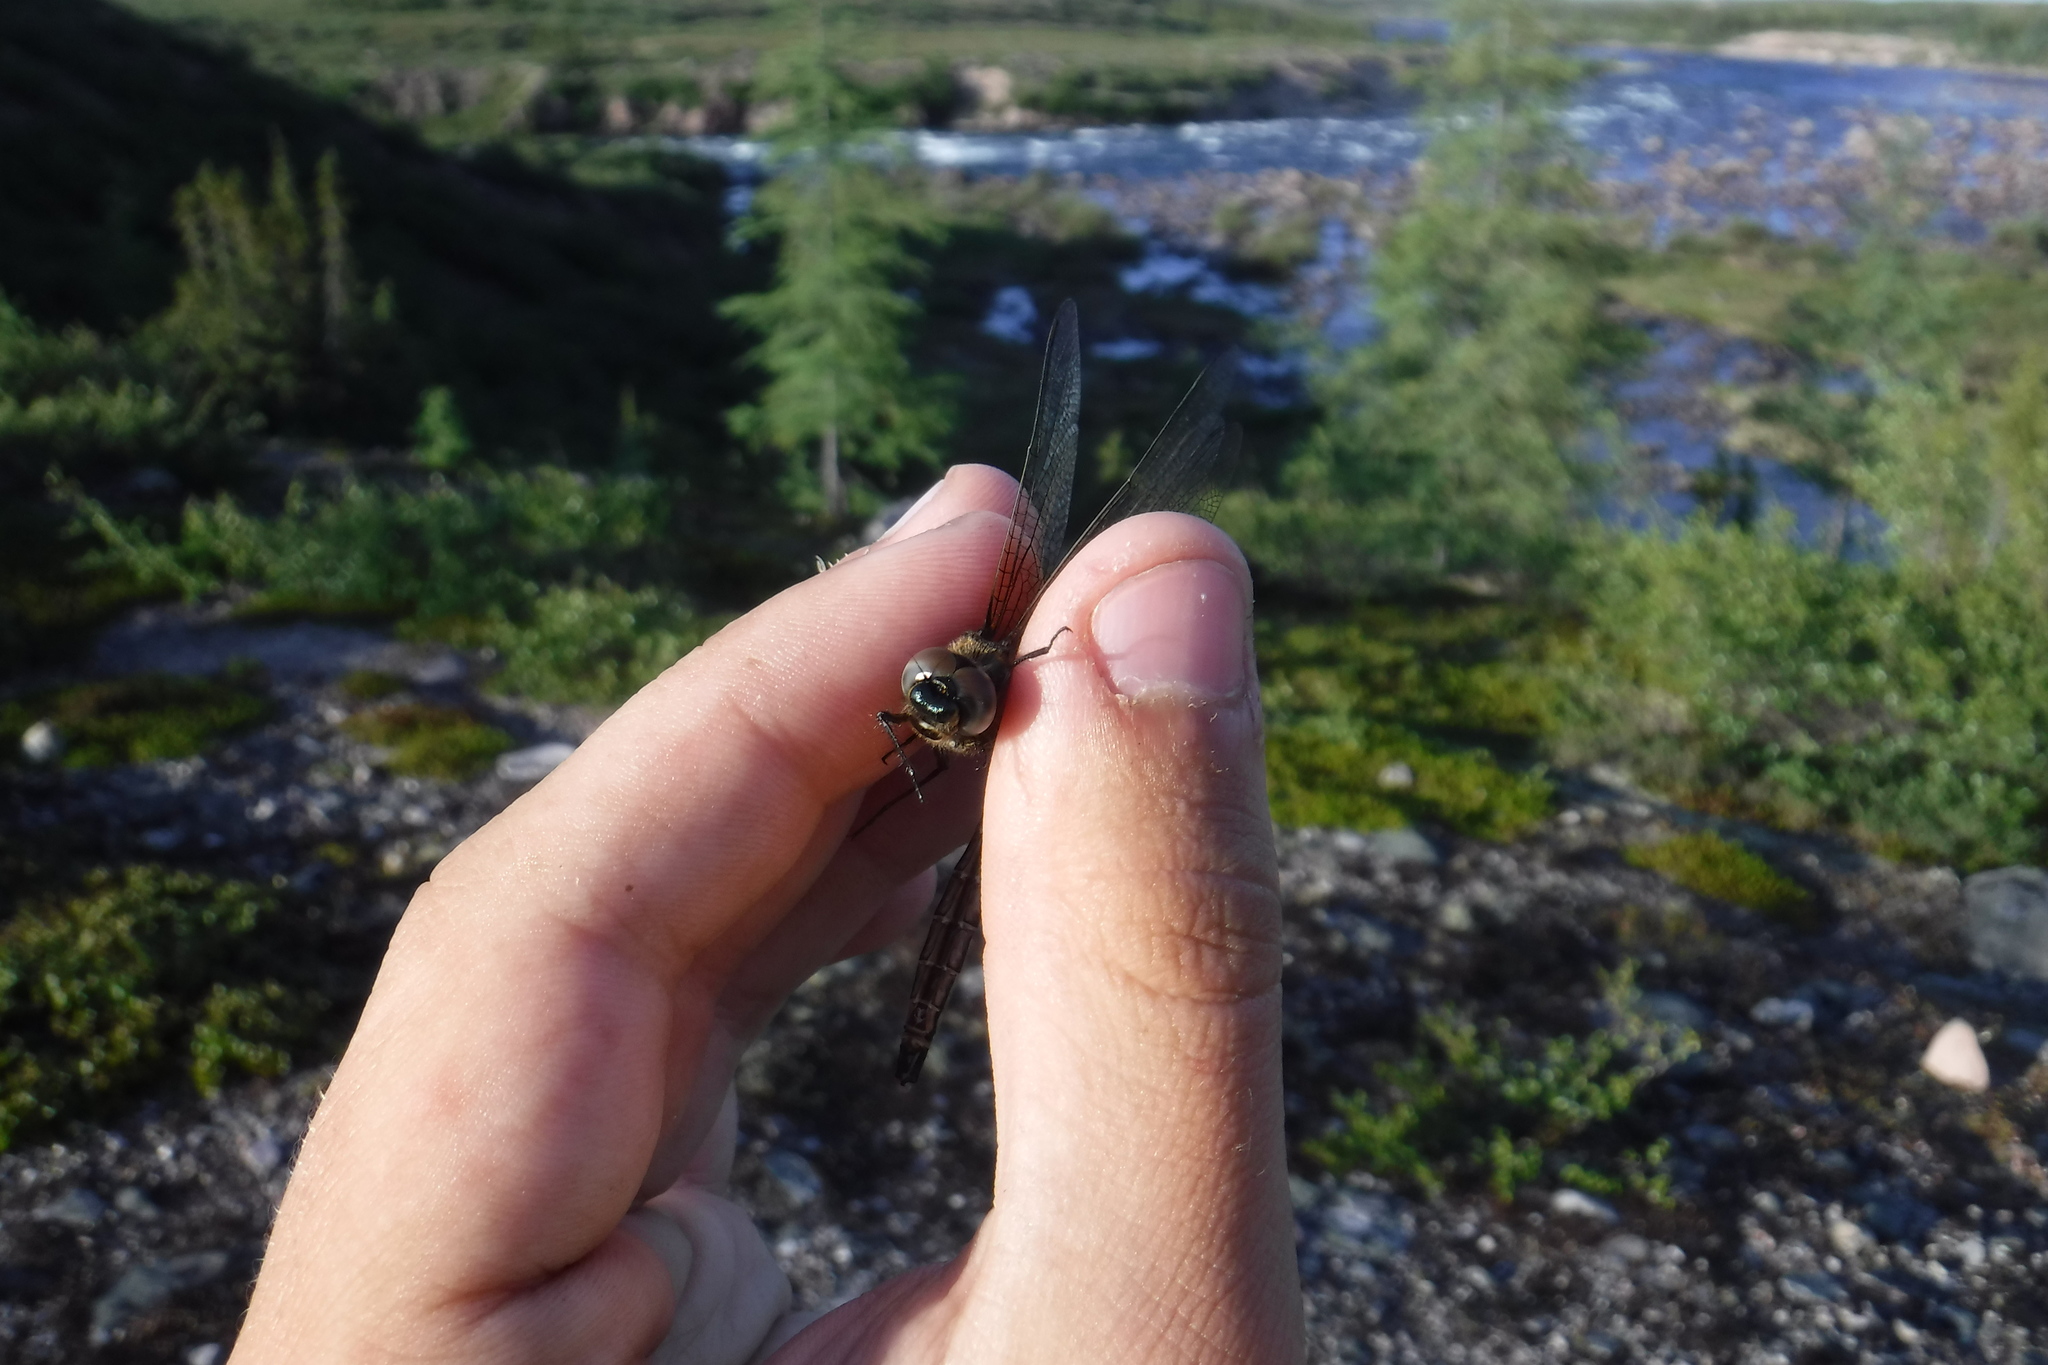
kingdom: Animalia
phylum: Arthropoda
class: Insecta
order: Odonata
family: Corduliidae
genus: Somatochlora
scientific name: Somatochlora albicincta
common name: Ringed emerald
